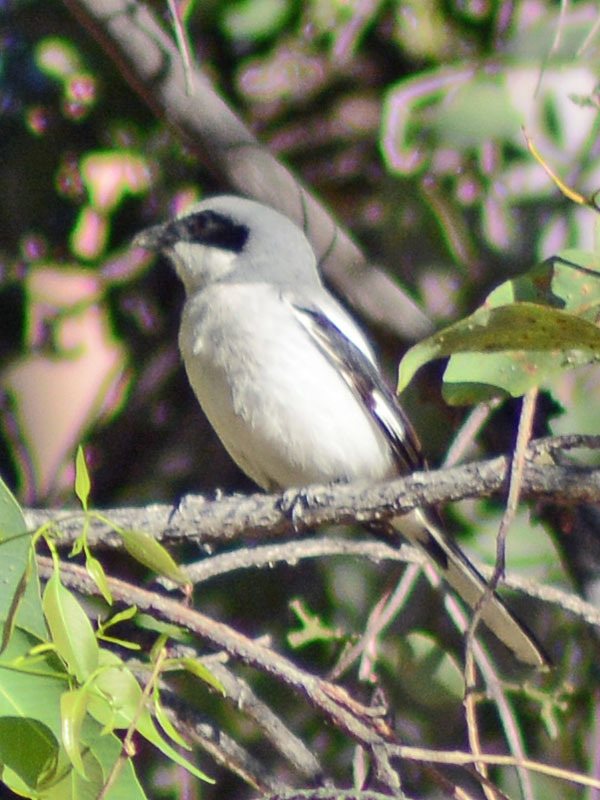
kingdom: Animalia
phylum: Chordata
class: Aves
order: Passeriformes
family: Laniidae
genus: Lanius
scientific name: Lanius ludovicianus
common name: Loggerhead shrike
